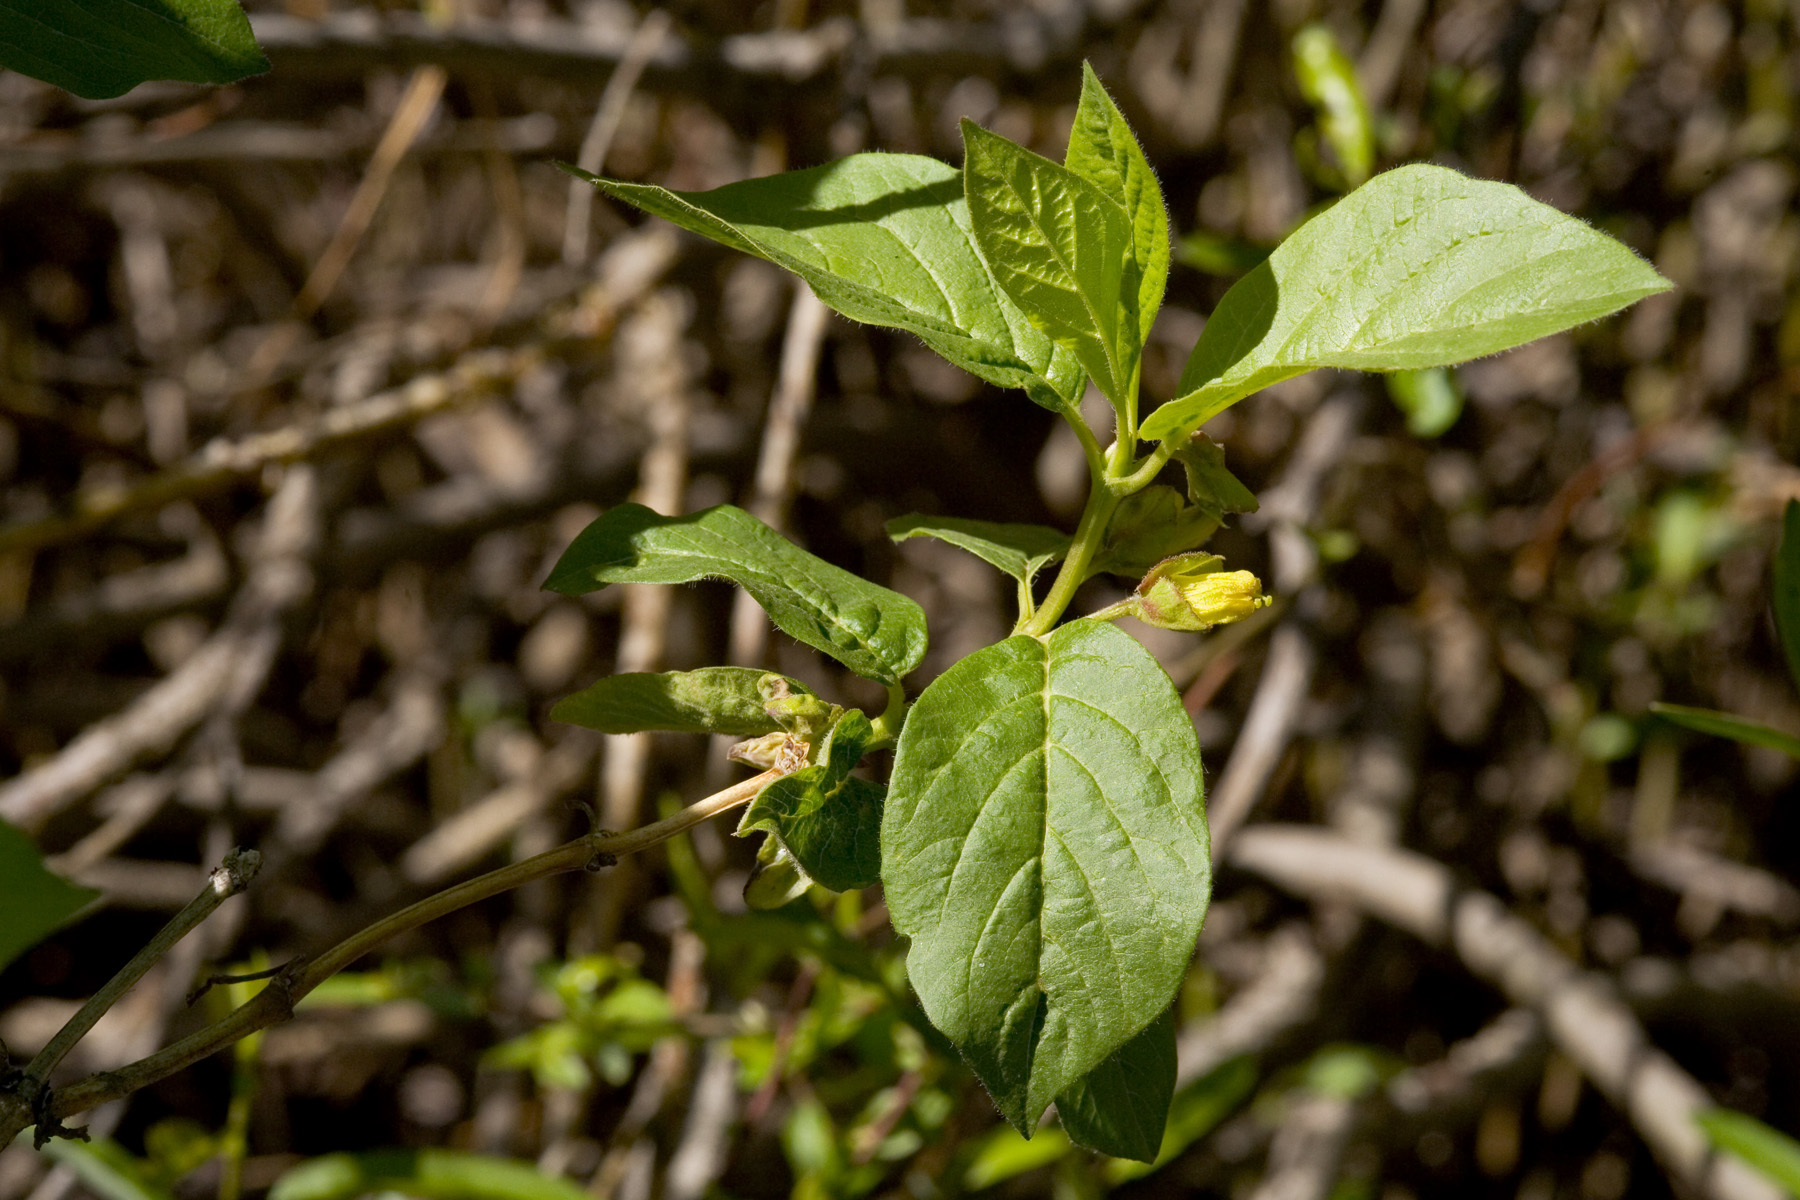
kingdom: Plantae
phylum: Tracheophyta
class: Magnoliopsida
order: Dipsacales
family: Caprifoliaceae
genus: Lonicera
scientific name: Lonicera involucrata
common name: Californian honeysuckle
